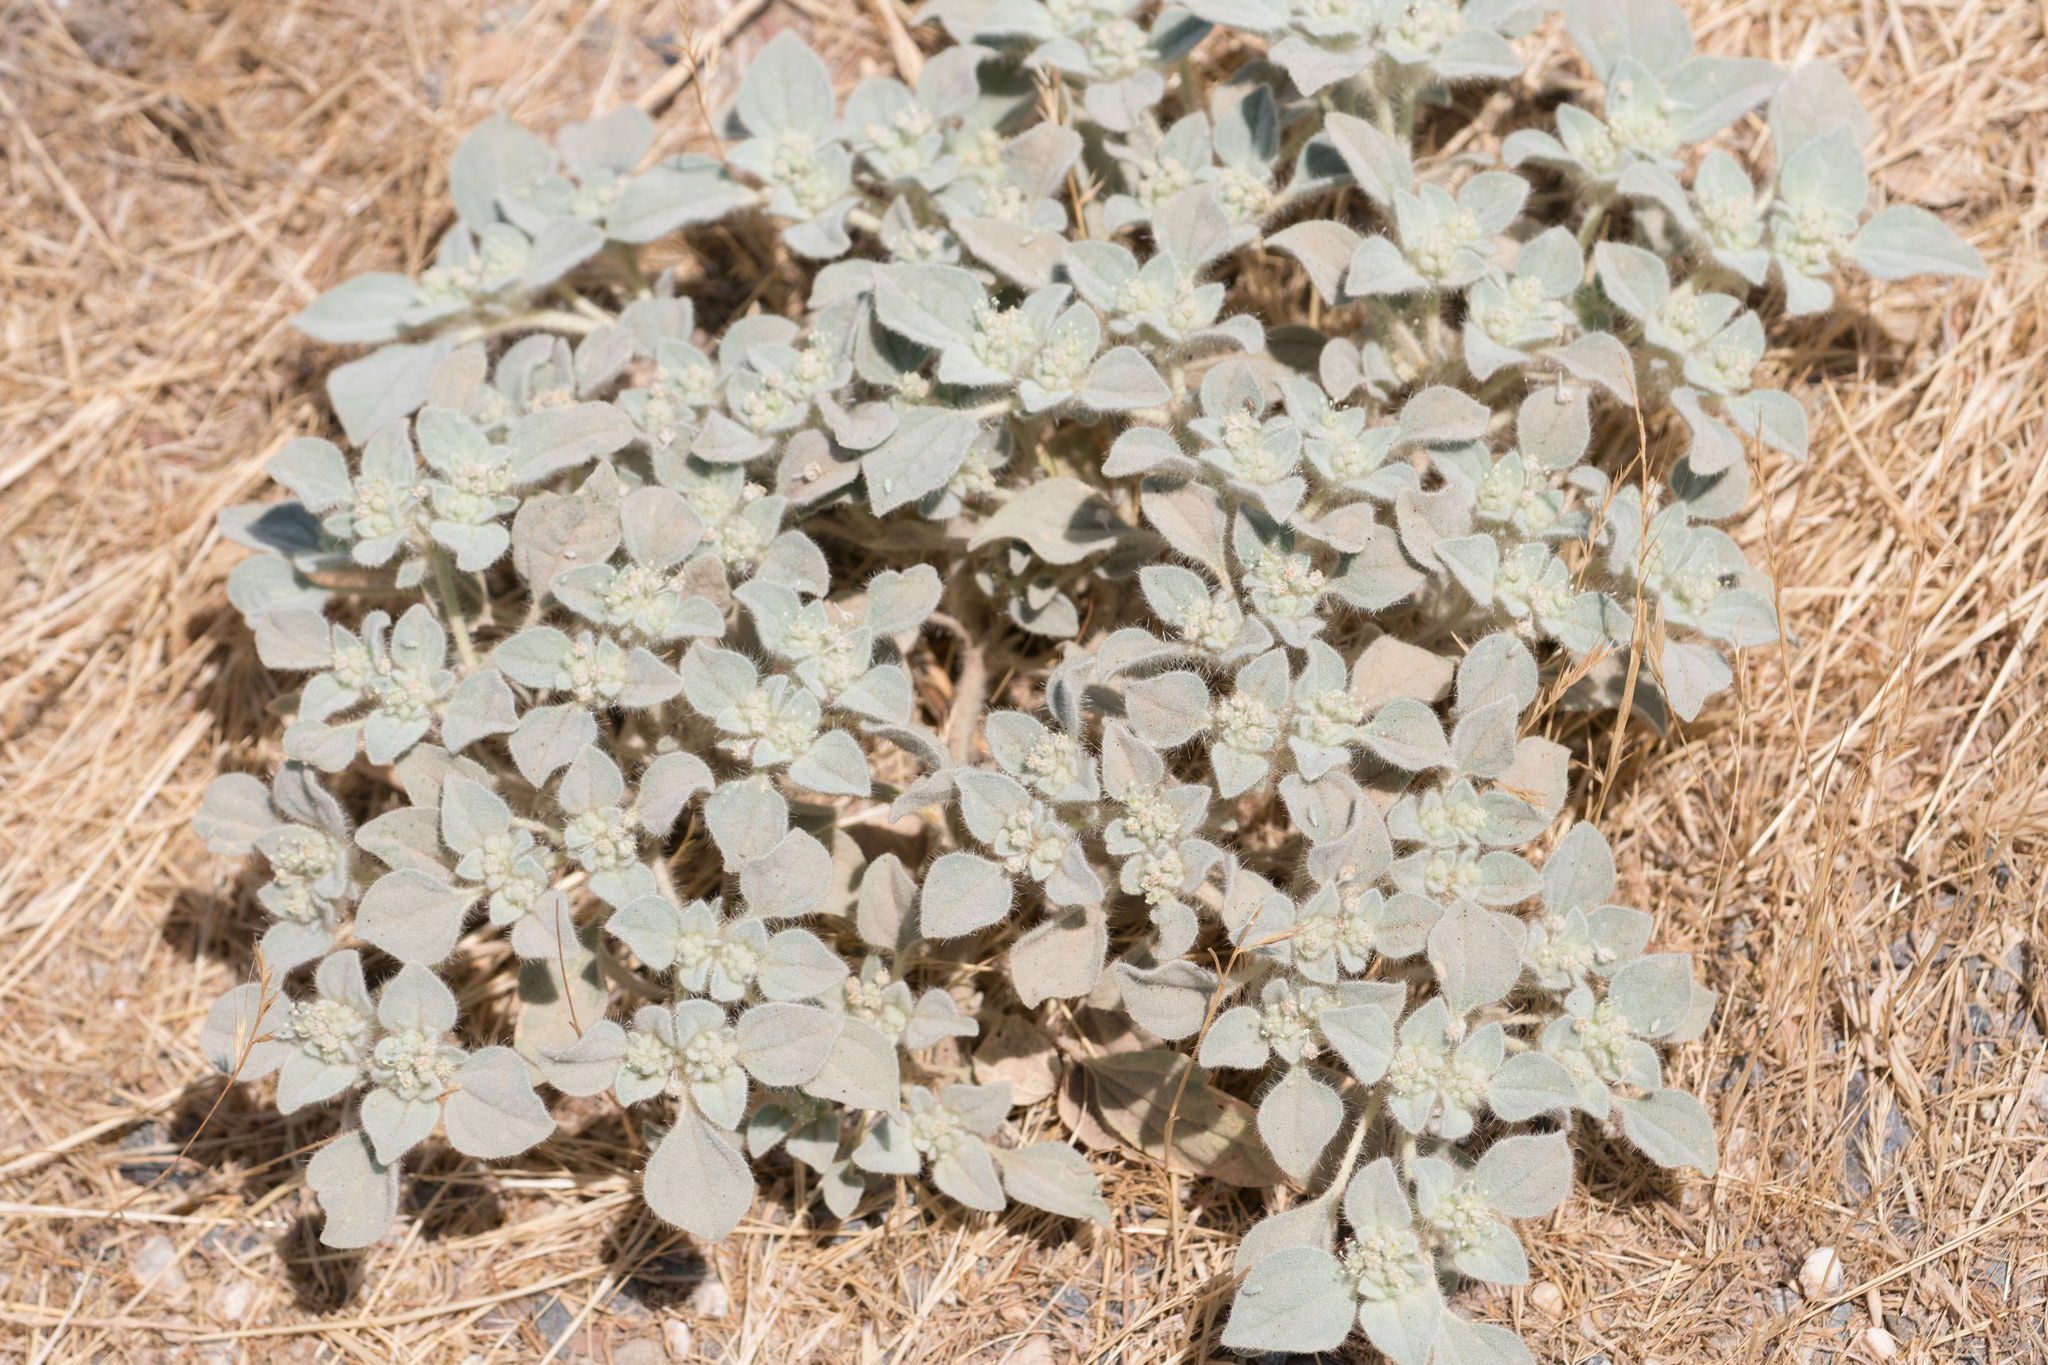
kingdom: Plantae
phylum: Tracheophyta
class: Magnoliopsida
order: Malpighiales
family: Euphorbiaceae
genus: Croton
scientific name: Croton setiger
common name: Dove weed
